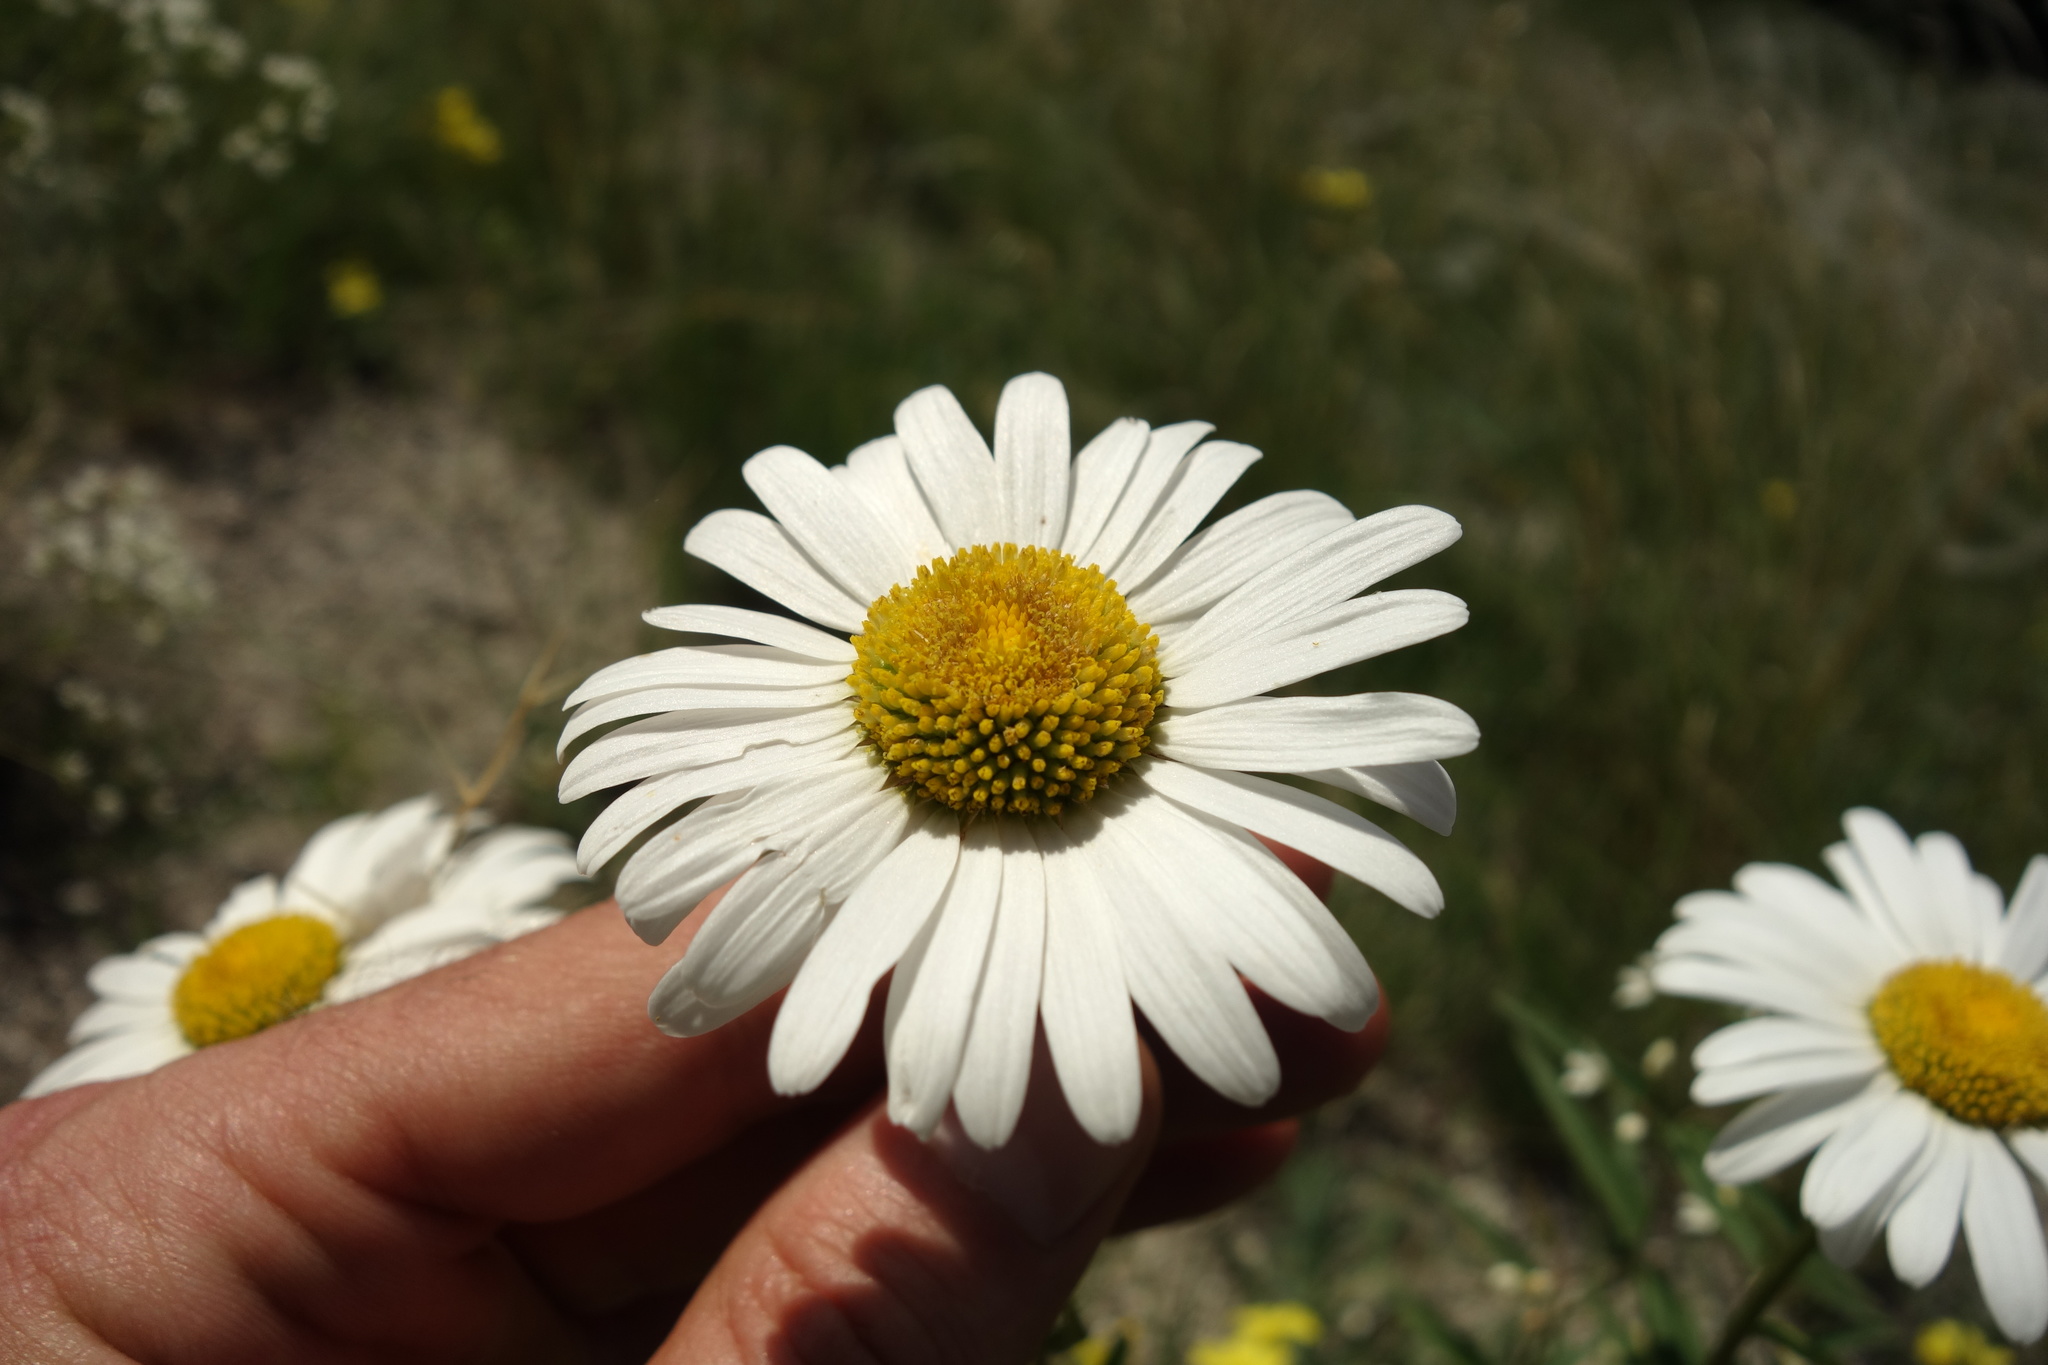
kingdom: Plantae
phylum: Tracheophyta
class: Magnoliopsida
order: Asterales
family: Asteraceae
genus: Leucanthemum
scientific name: Leucanthemum vulgare
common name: Oxeye daisy
